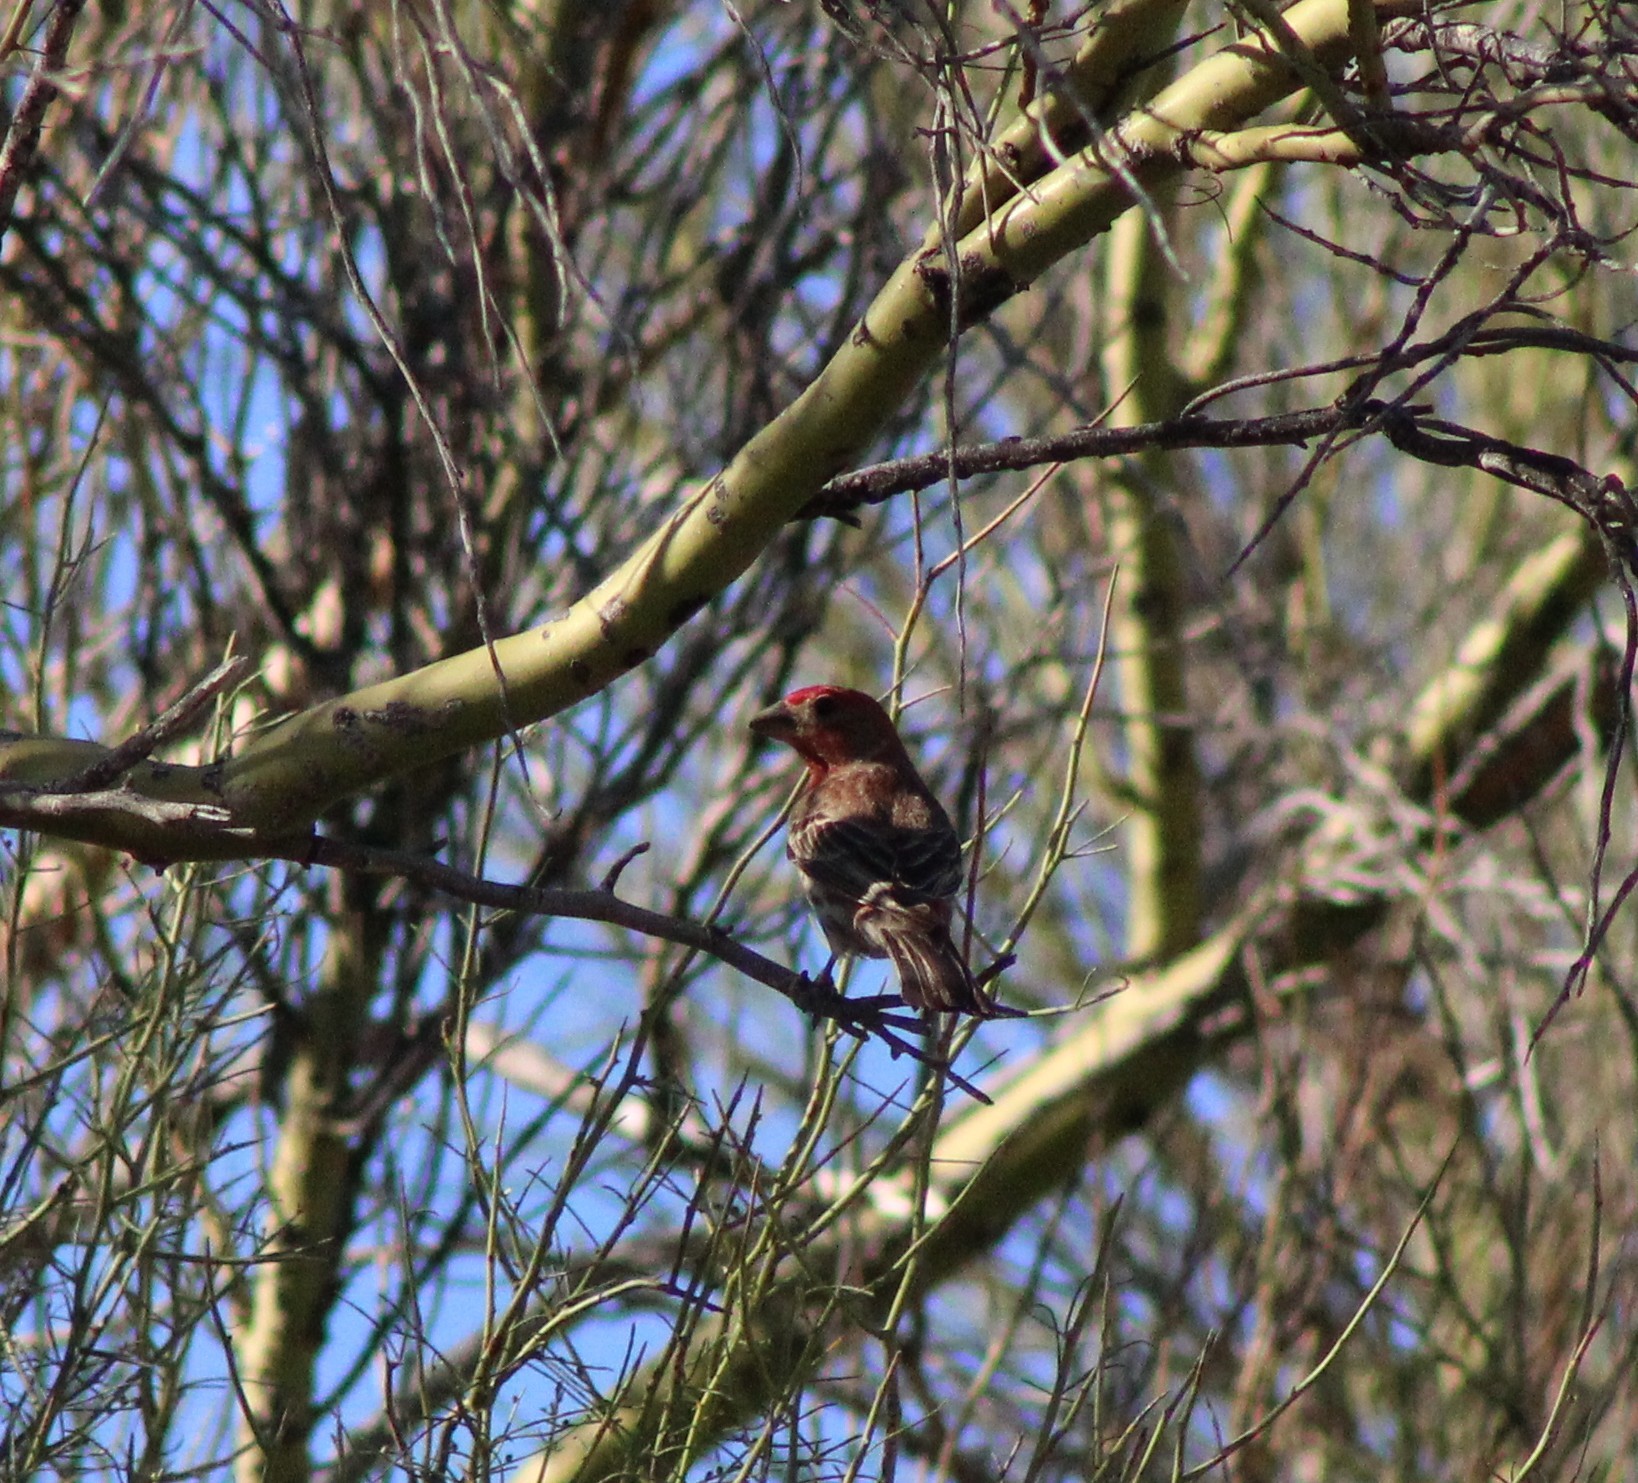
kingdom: Animalia
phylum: Chordata
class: Aves
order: Passeriformes
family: Fringillidae
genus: Haemorhous
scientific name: Haemorhous mexicanus
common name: House finch
